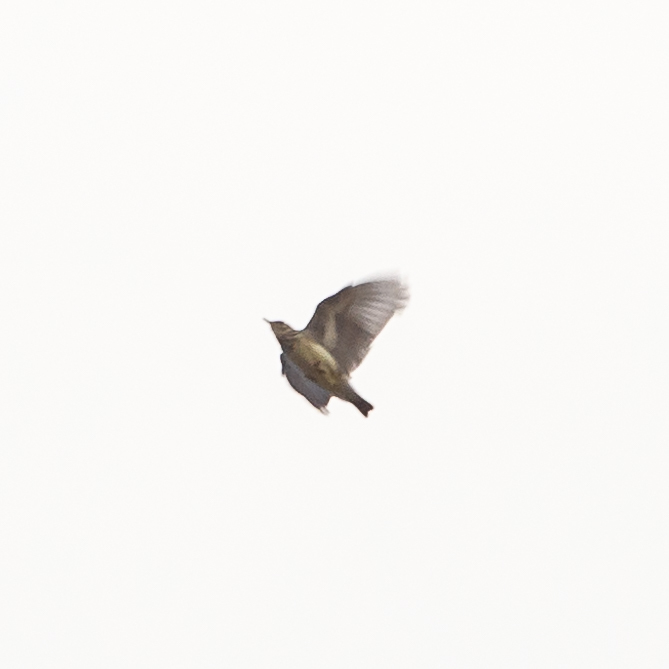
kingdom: Animalia
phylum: Chordata
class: Aves
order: Passeriformes
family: Alaudidae
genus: Lullula
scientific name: Lullula arborea
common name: Woodlark
